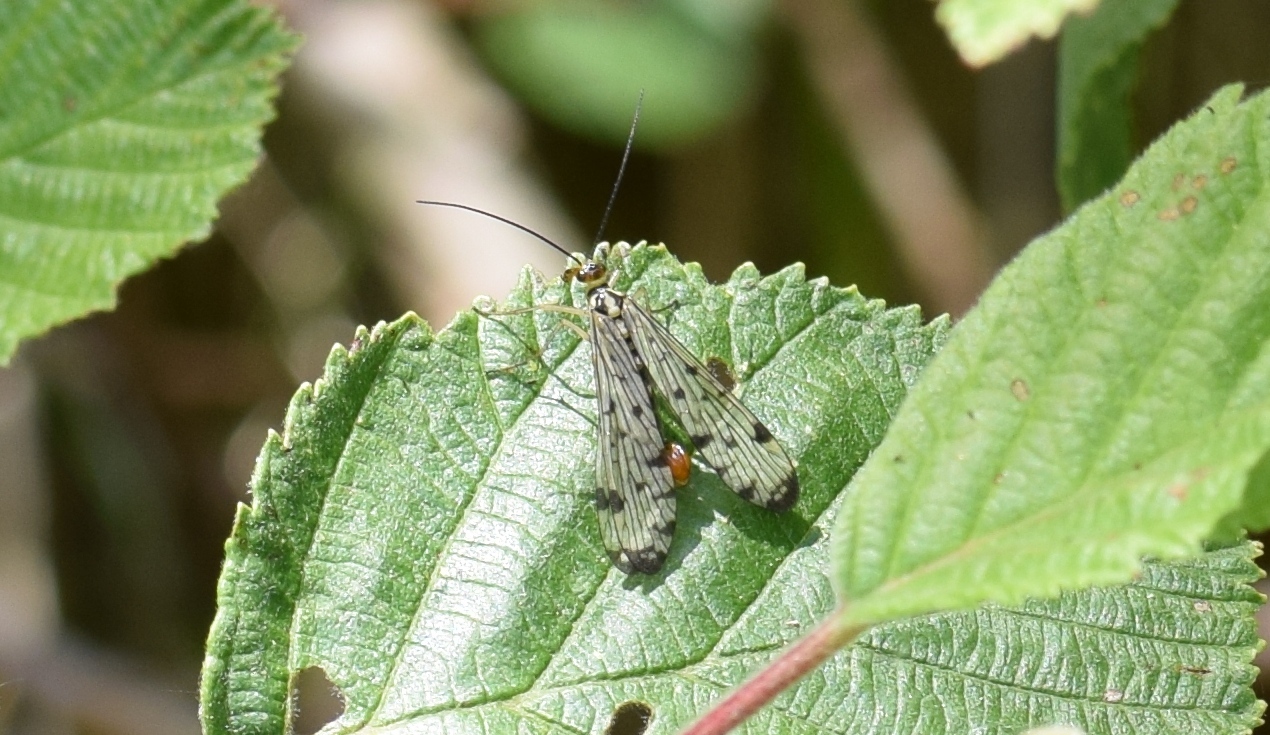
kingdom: Animalia
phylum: Arthropoda
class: Insecta
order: Mecoptera
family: Panorpidae
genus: Panorpa
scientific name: Panorpa germanica
